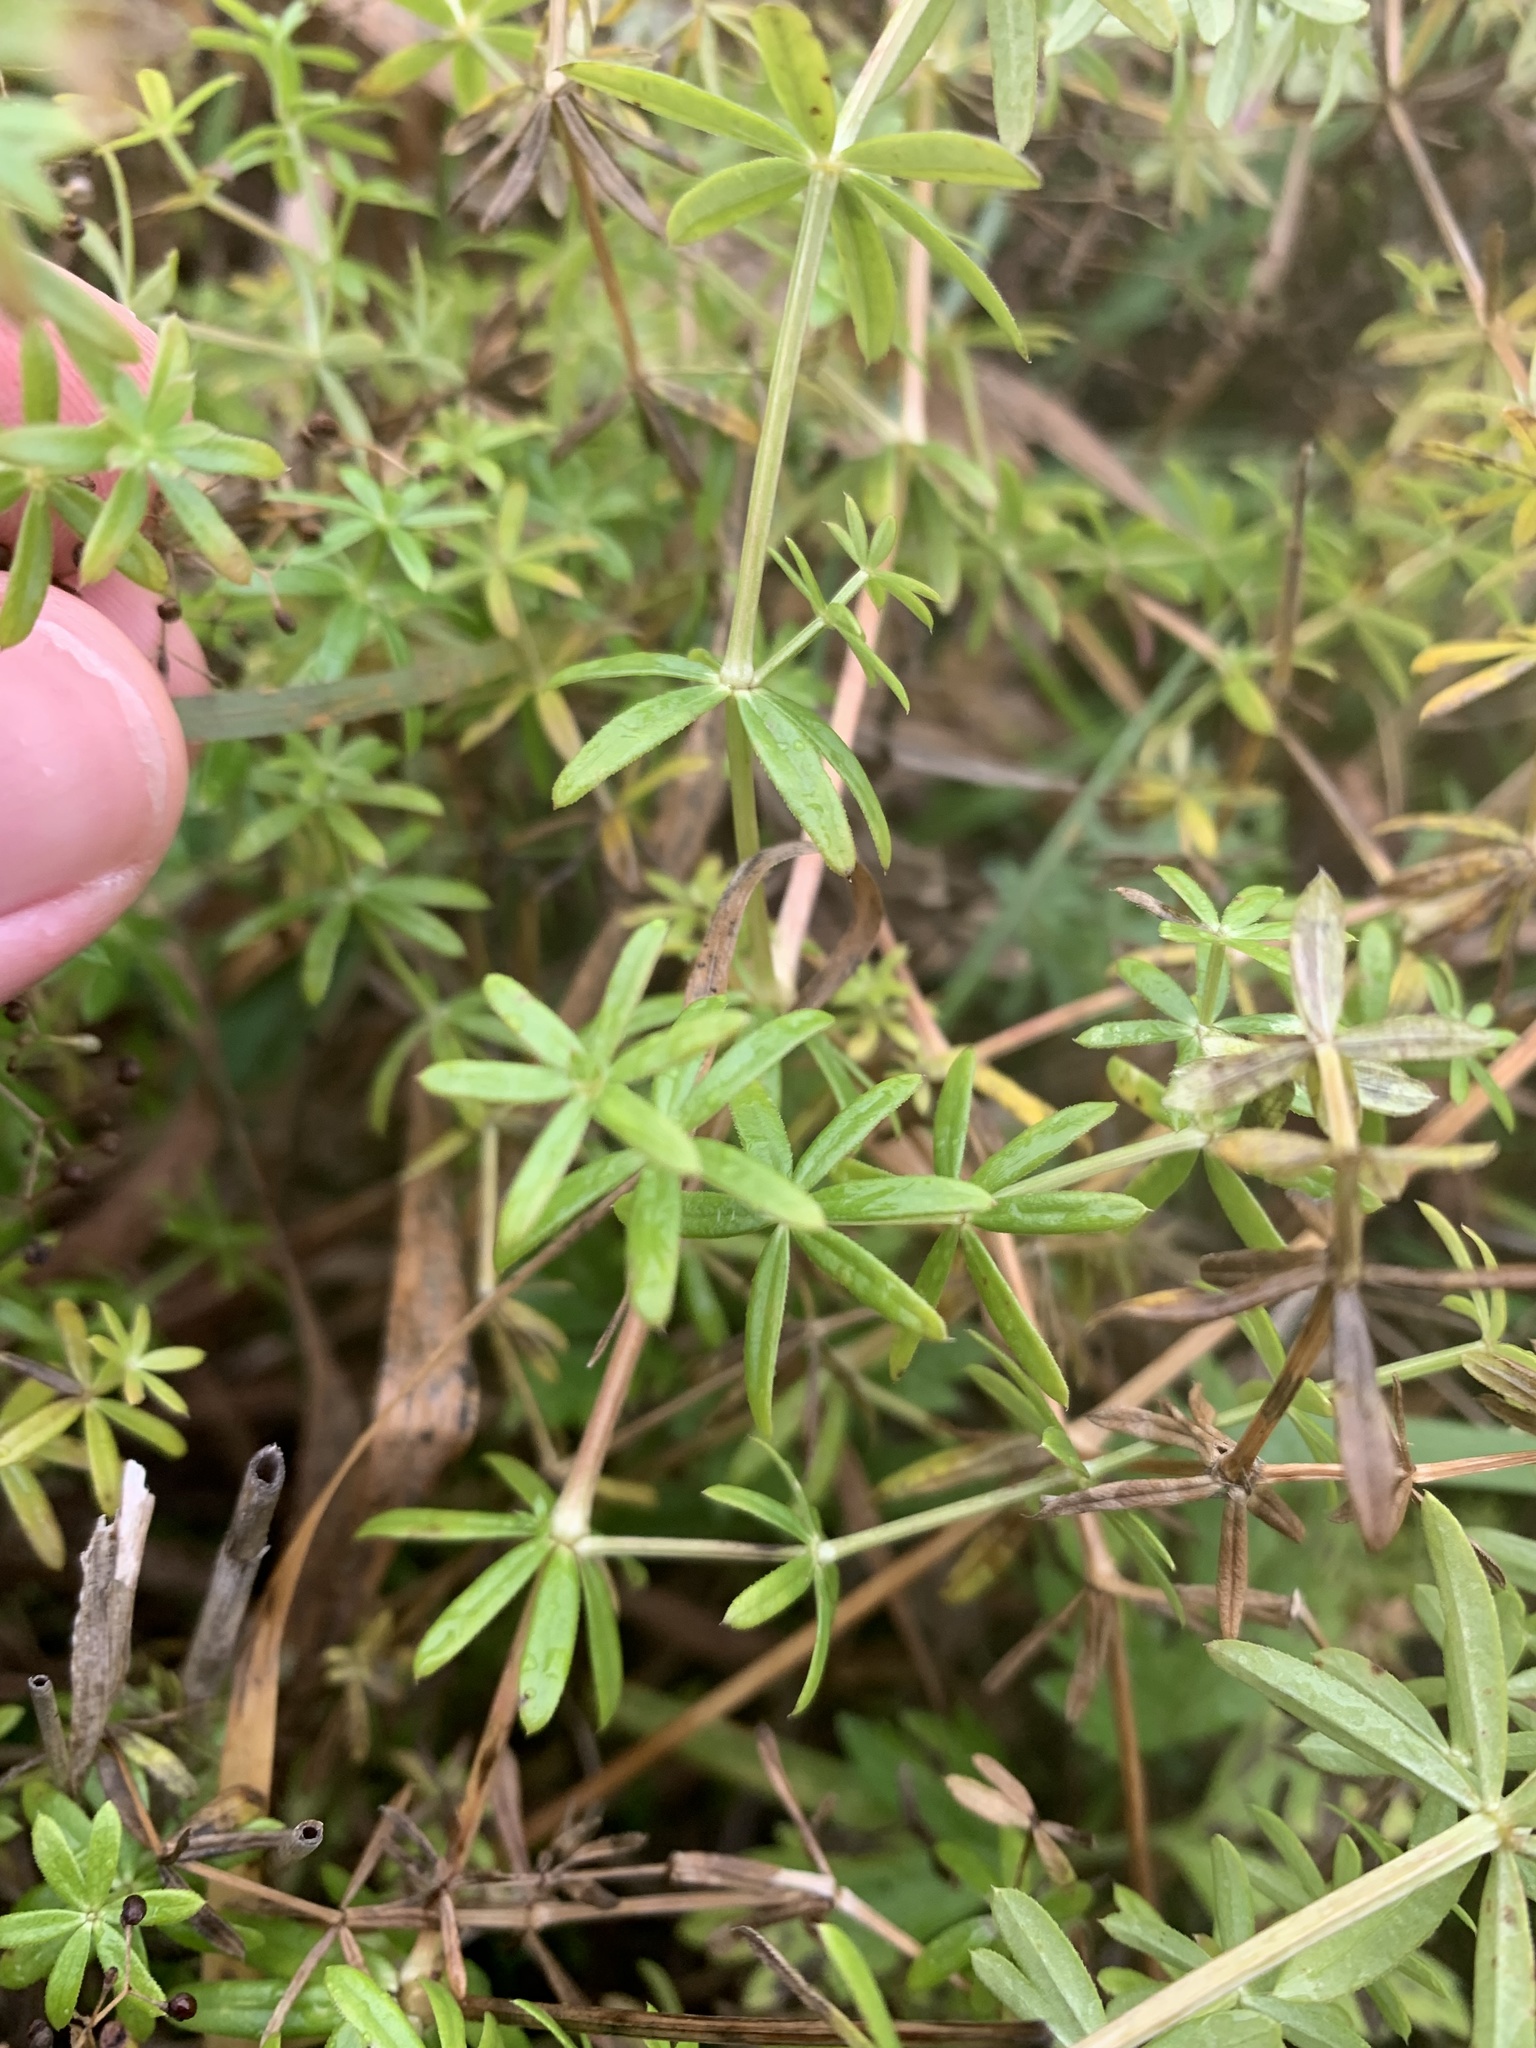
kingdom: Plantae
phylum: Tracheophyta
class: Magnoliopsida
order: Gentianales
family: Rubiaceae
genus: Galium
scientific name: Galium mollugo
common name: Hedge bedstraw
